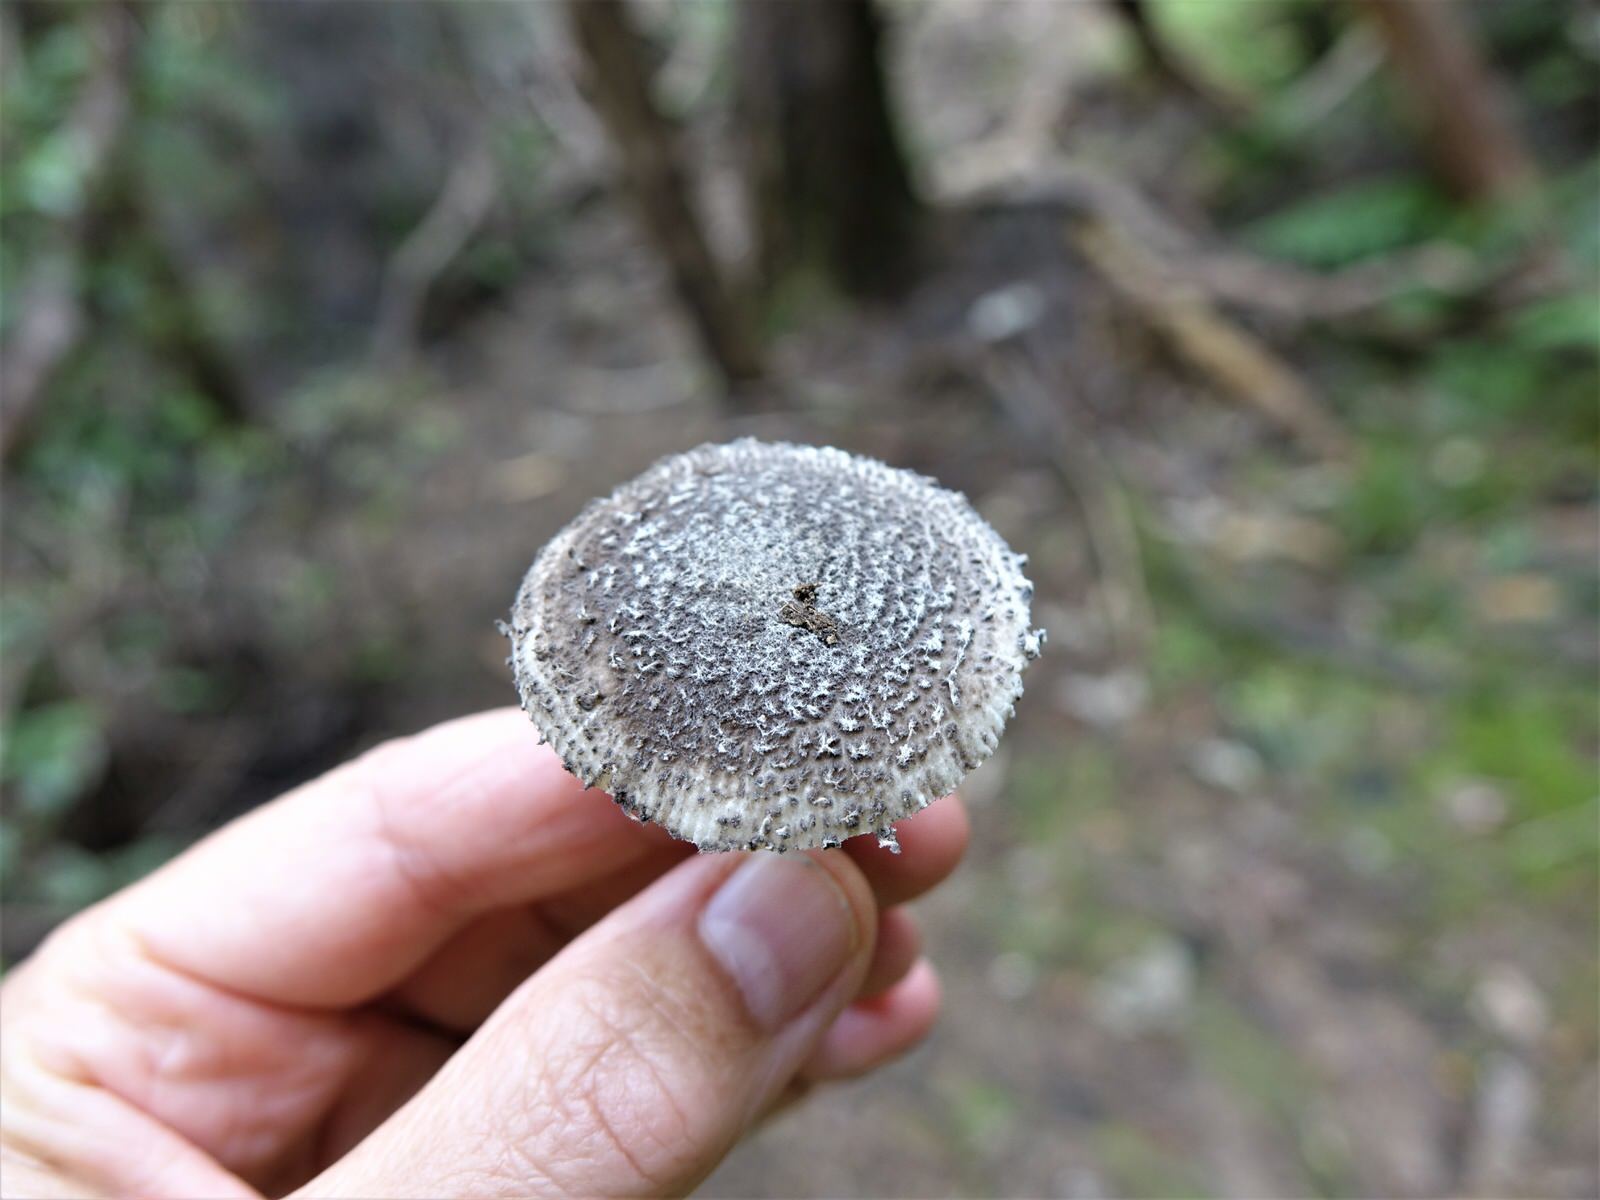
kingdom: Fungi
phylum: Basidiomycota
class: Agaricomycetes
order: Agaricales
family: Amanitaceae
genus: Amanita
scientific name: Amanita nehuta
